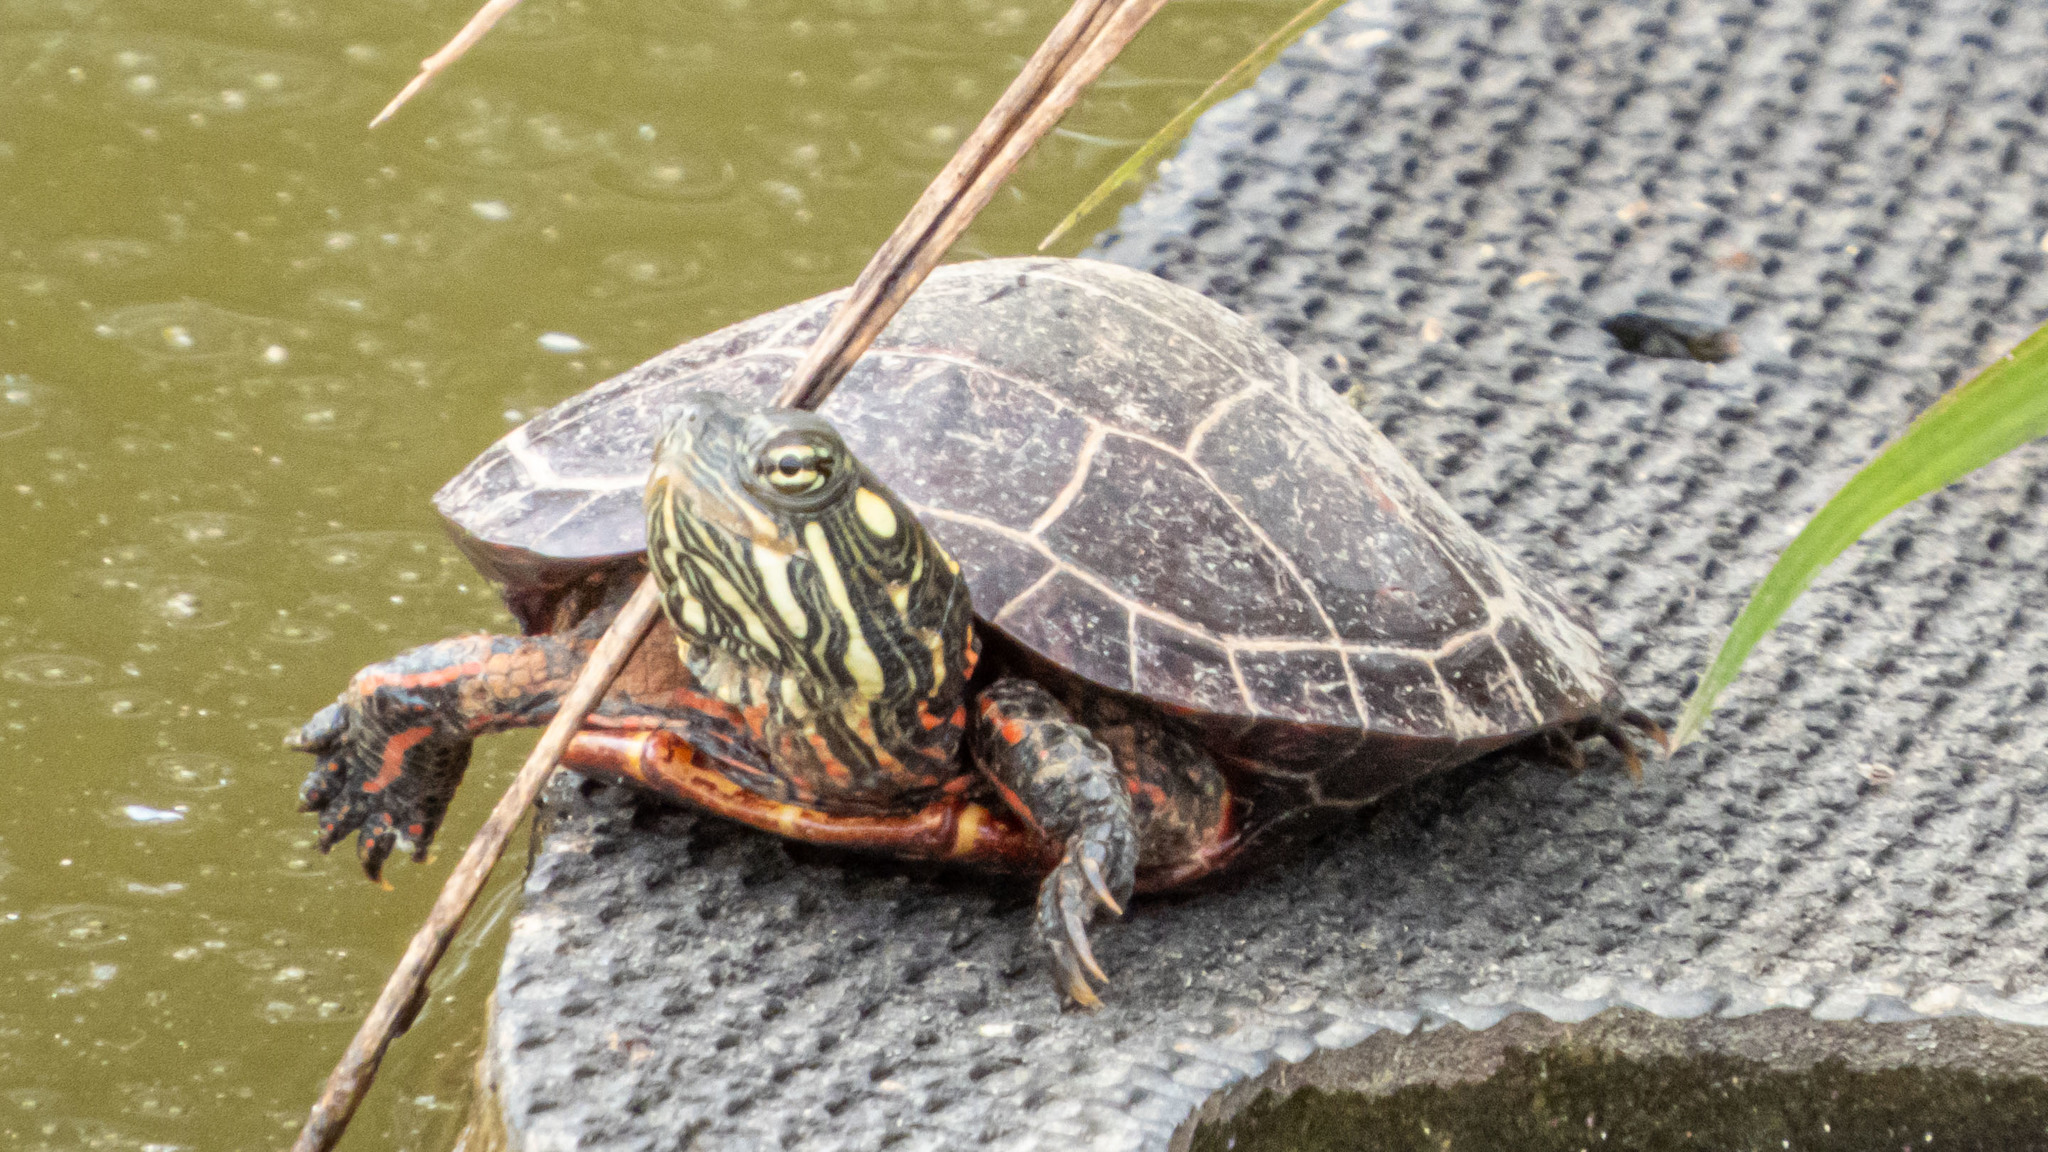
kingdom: Animalia
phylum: Chordata
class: Testudines
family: Emydidae
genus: Chrysemys
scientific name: Chrysemys picta
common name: Painted turtle
